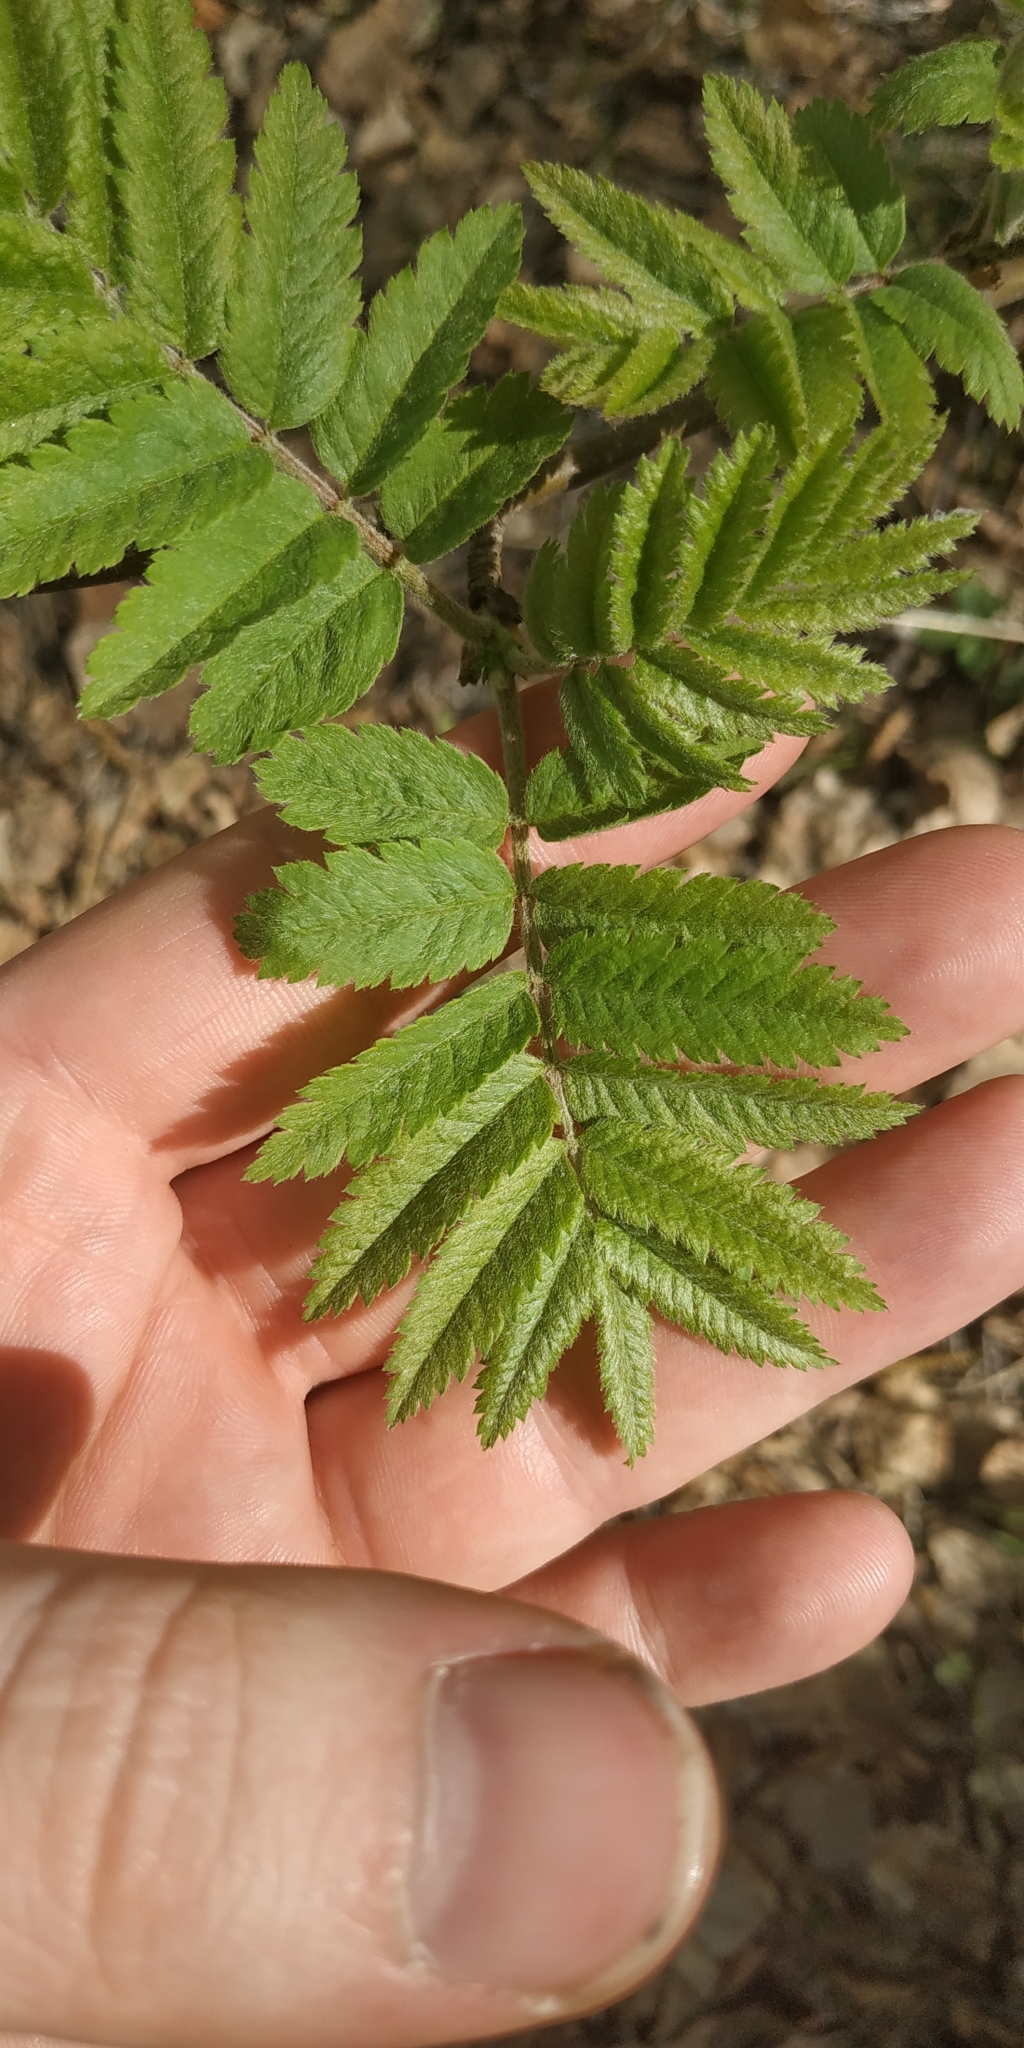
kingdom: Plantae
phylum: Tracheophyta
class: Magnoliopsida
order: Rosales
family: Rosaceae
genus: Sorbus
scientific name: Sorbus aucuparia
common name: Rowan
